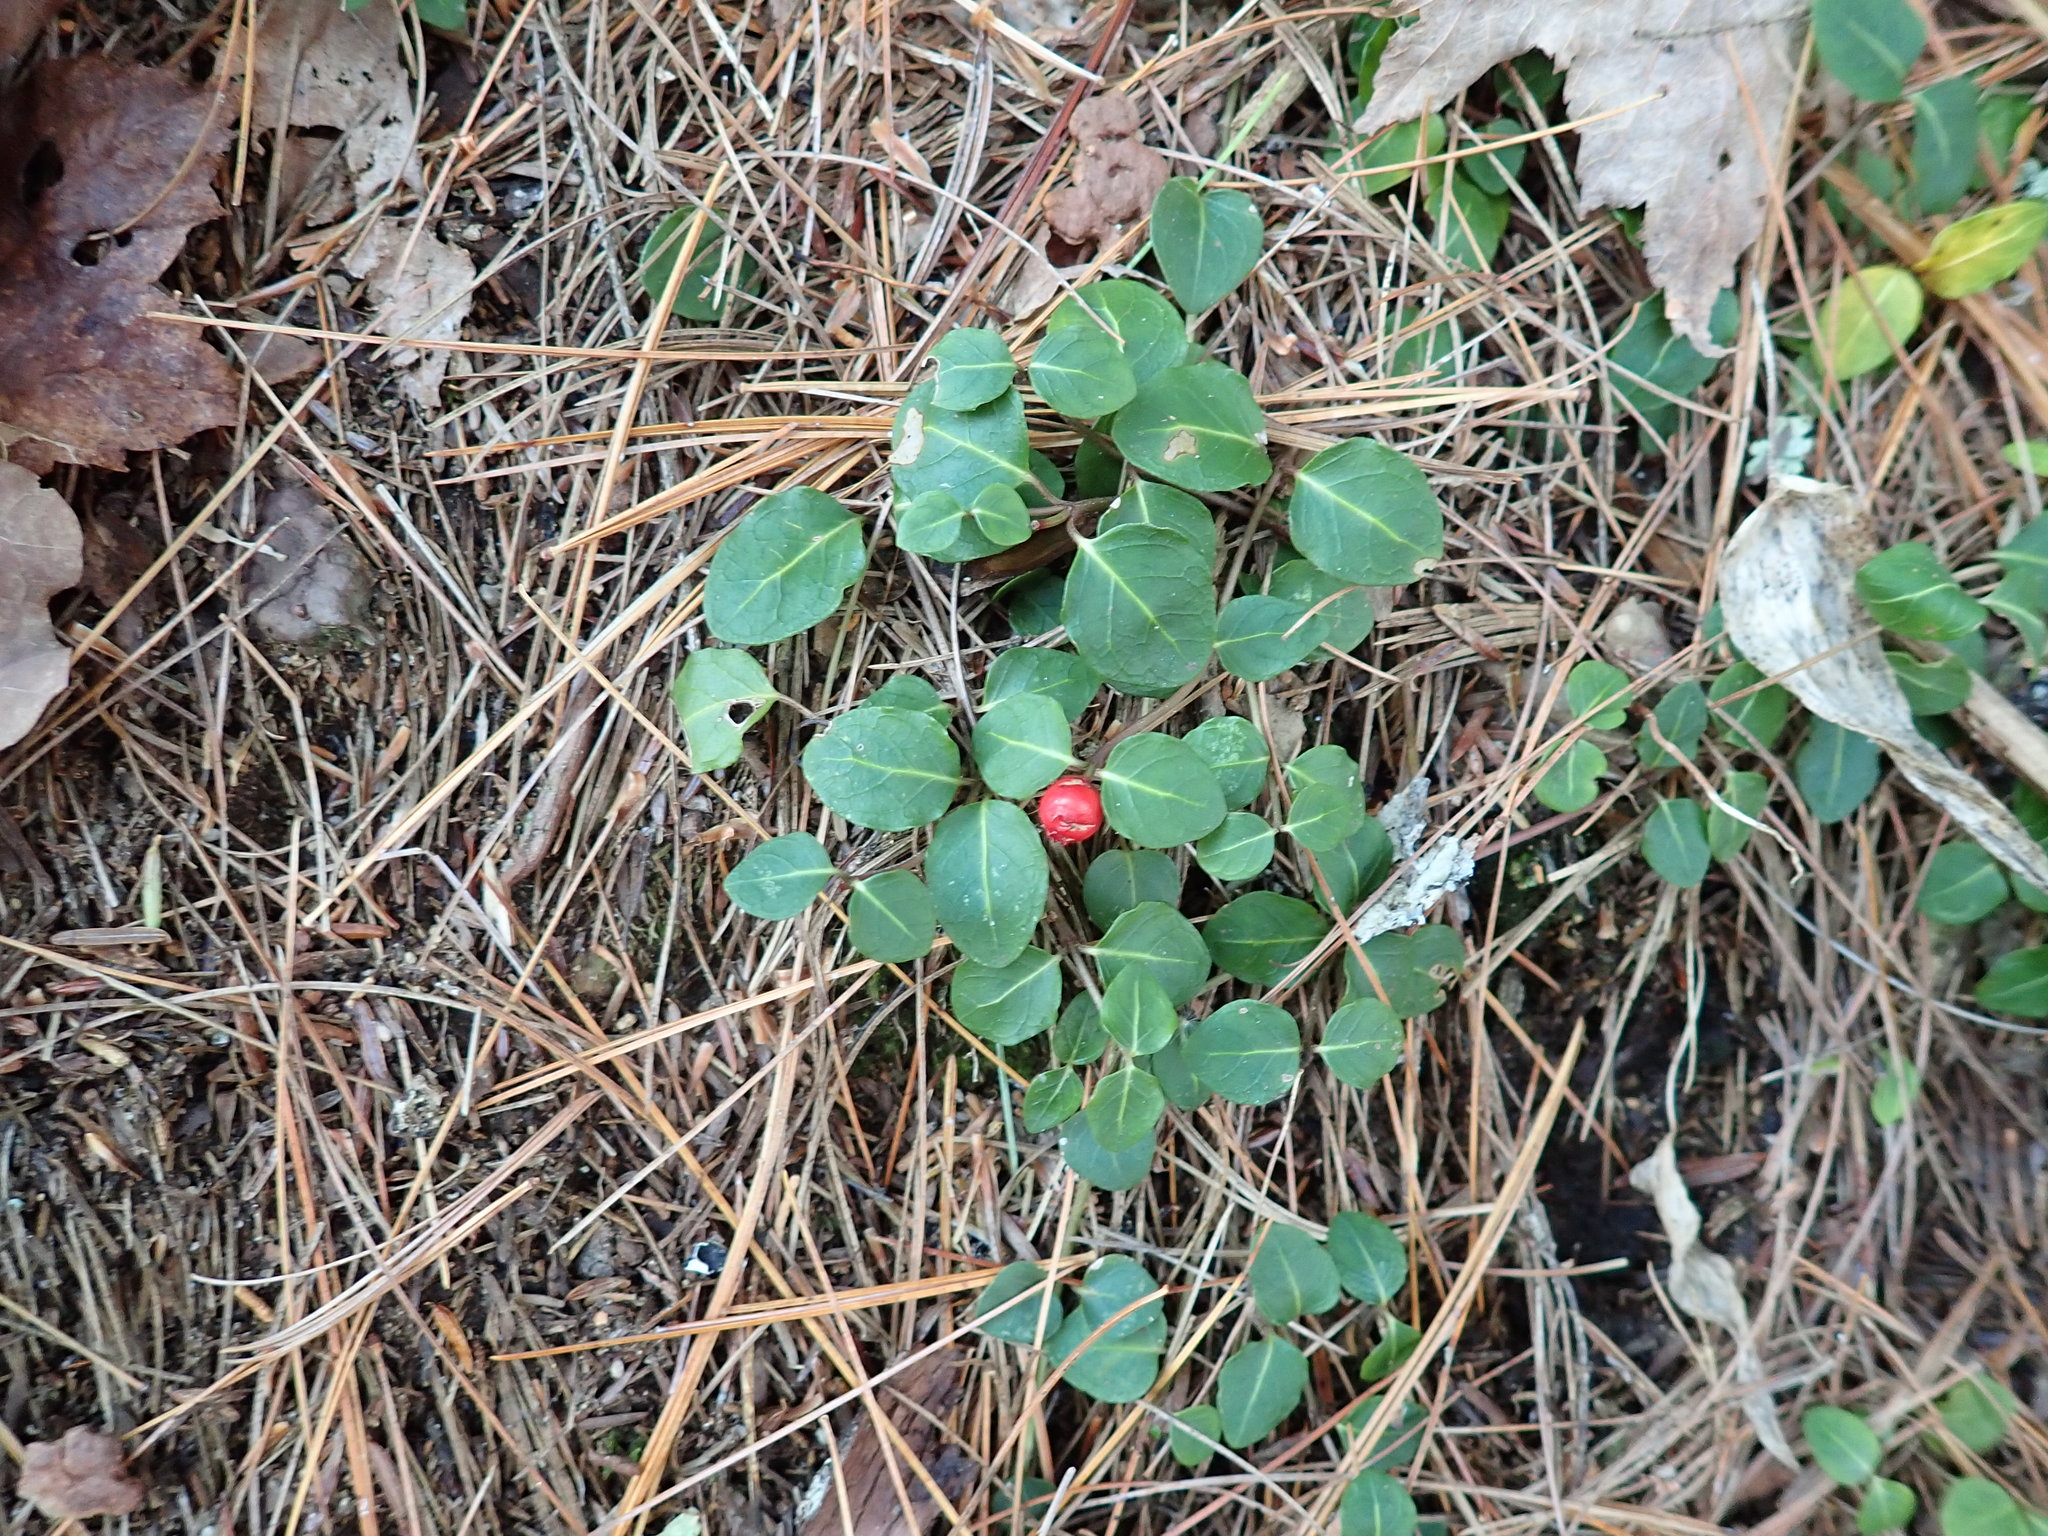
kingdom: Plantae
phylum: Tracheophyta
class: Magnoliopsida
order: Gentianales
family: Rubiaceae
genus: Mitchella
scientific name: Mitchella repens
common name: Partridge-berry
